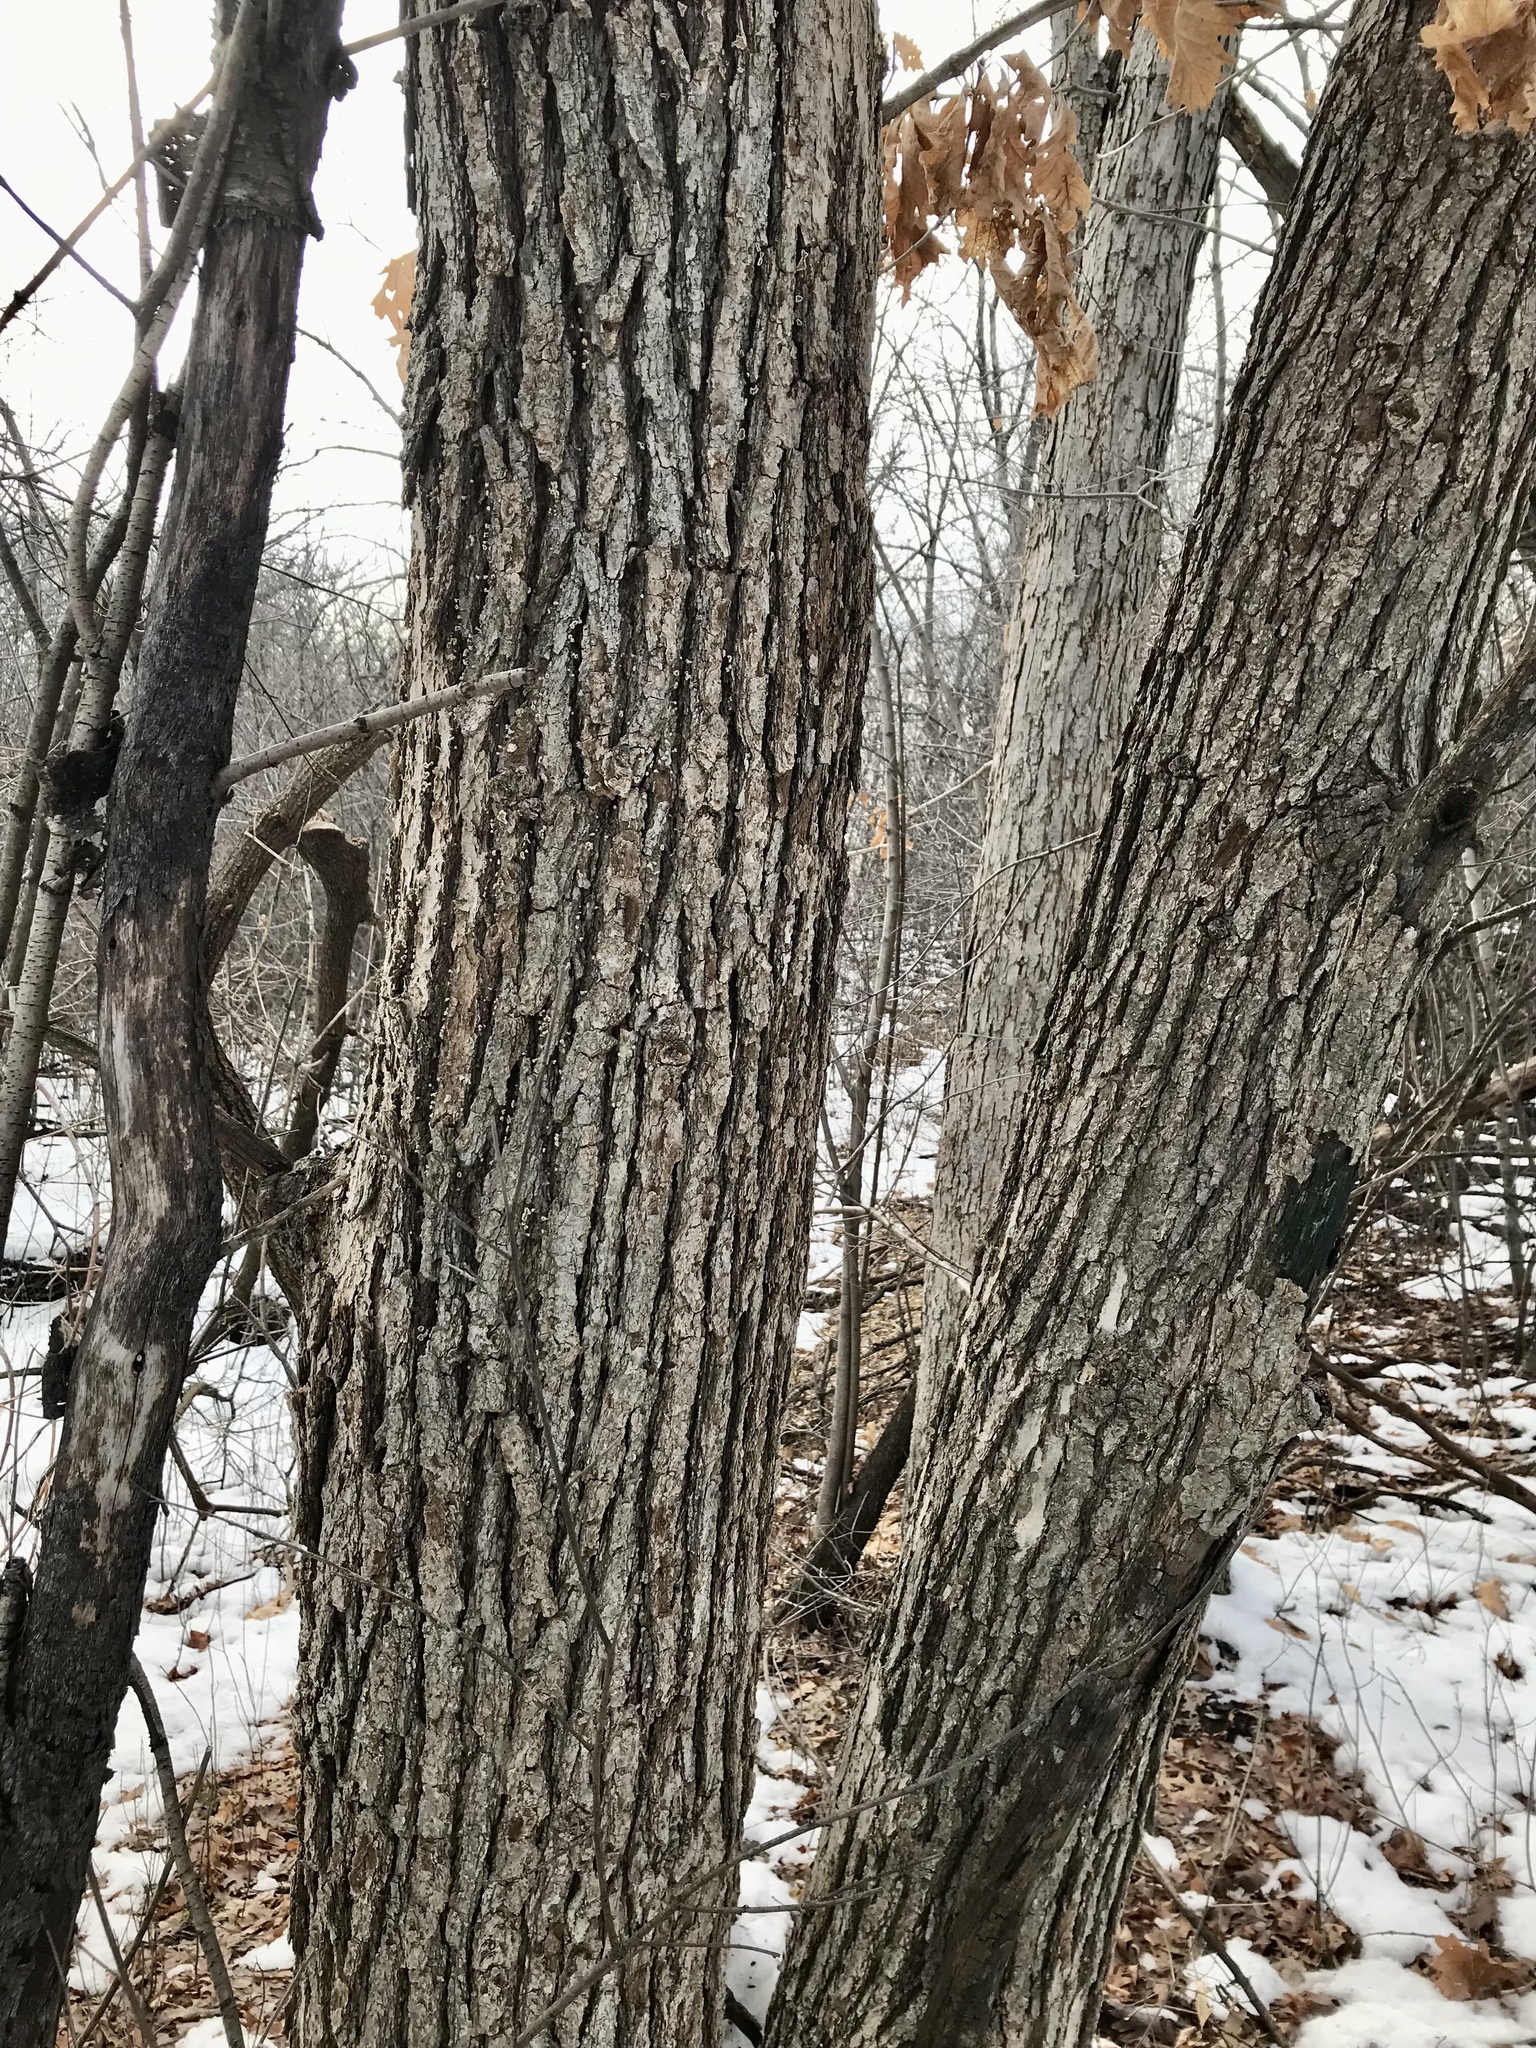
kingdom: Plantae
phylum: Tracheophyta
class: Magnoliopsida
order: Fagales
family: Fagaceae
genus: Quercus
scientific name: Quercus bebbiana
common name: Bebb's oak
